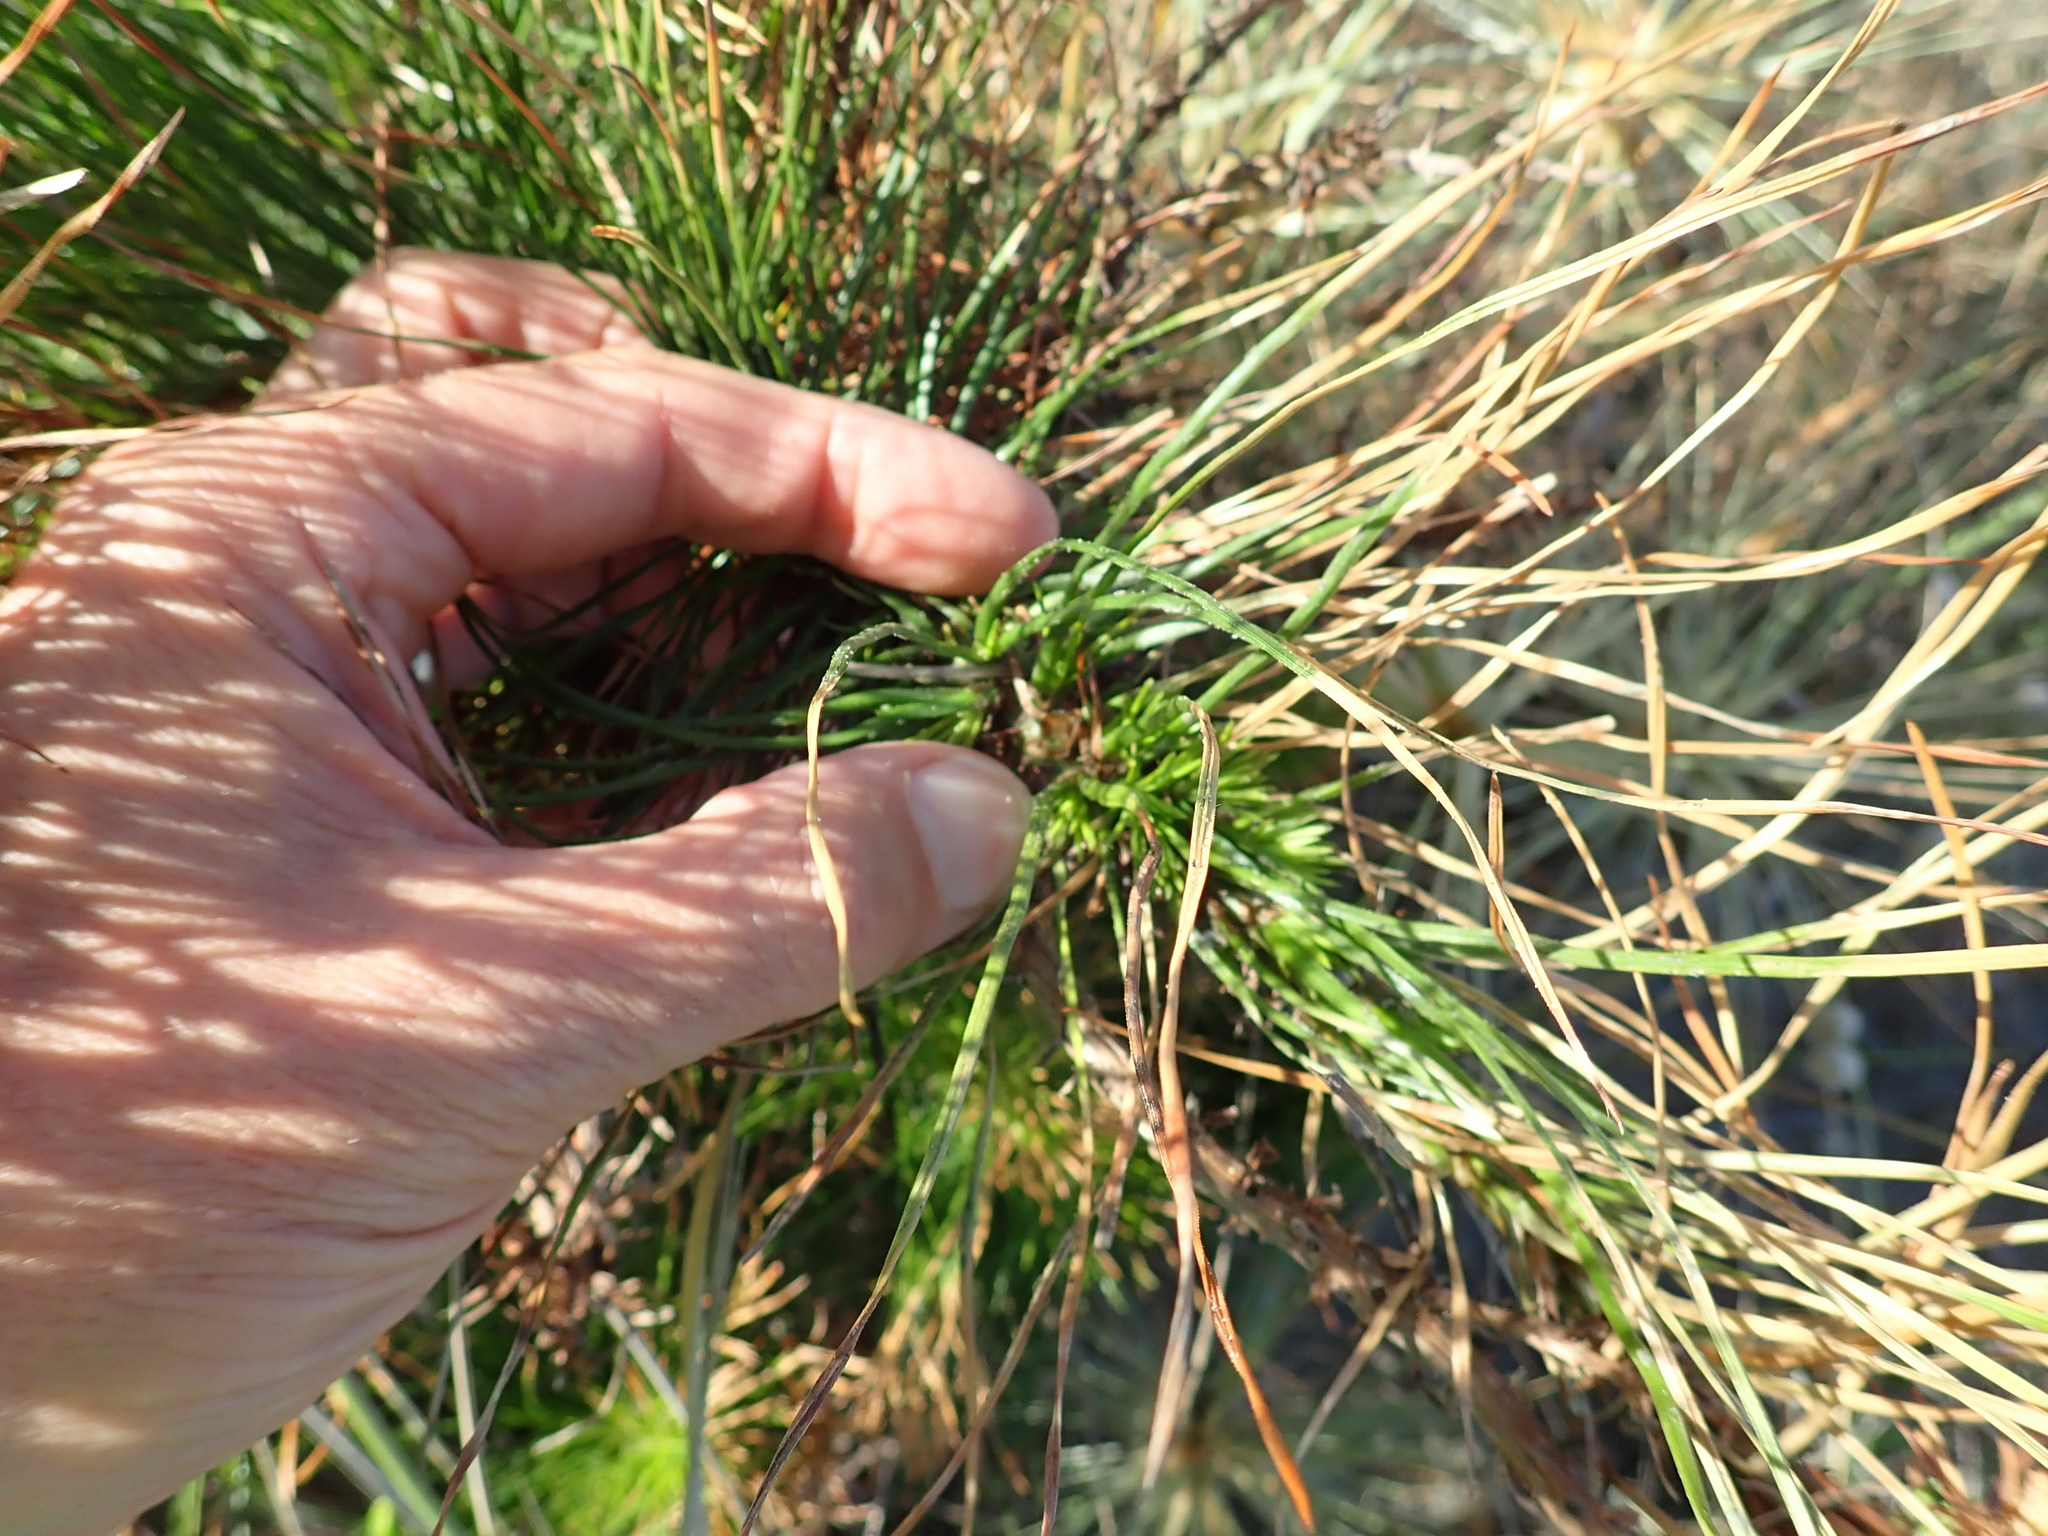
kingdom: Plantae
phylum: Tracheophyta
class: Pinopsida
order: Pinales
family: Pinaceae
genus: Pinus
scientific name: Pinus radiata
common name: Monterey pine
